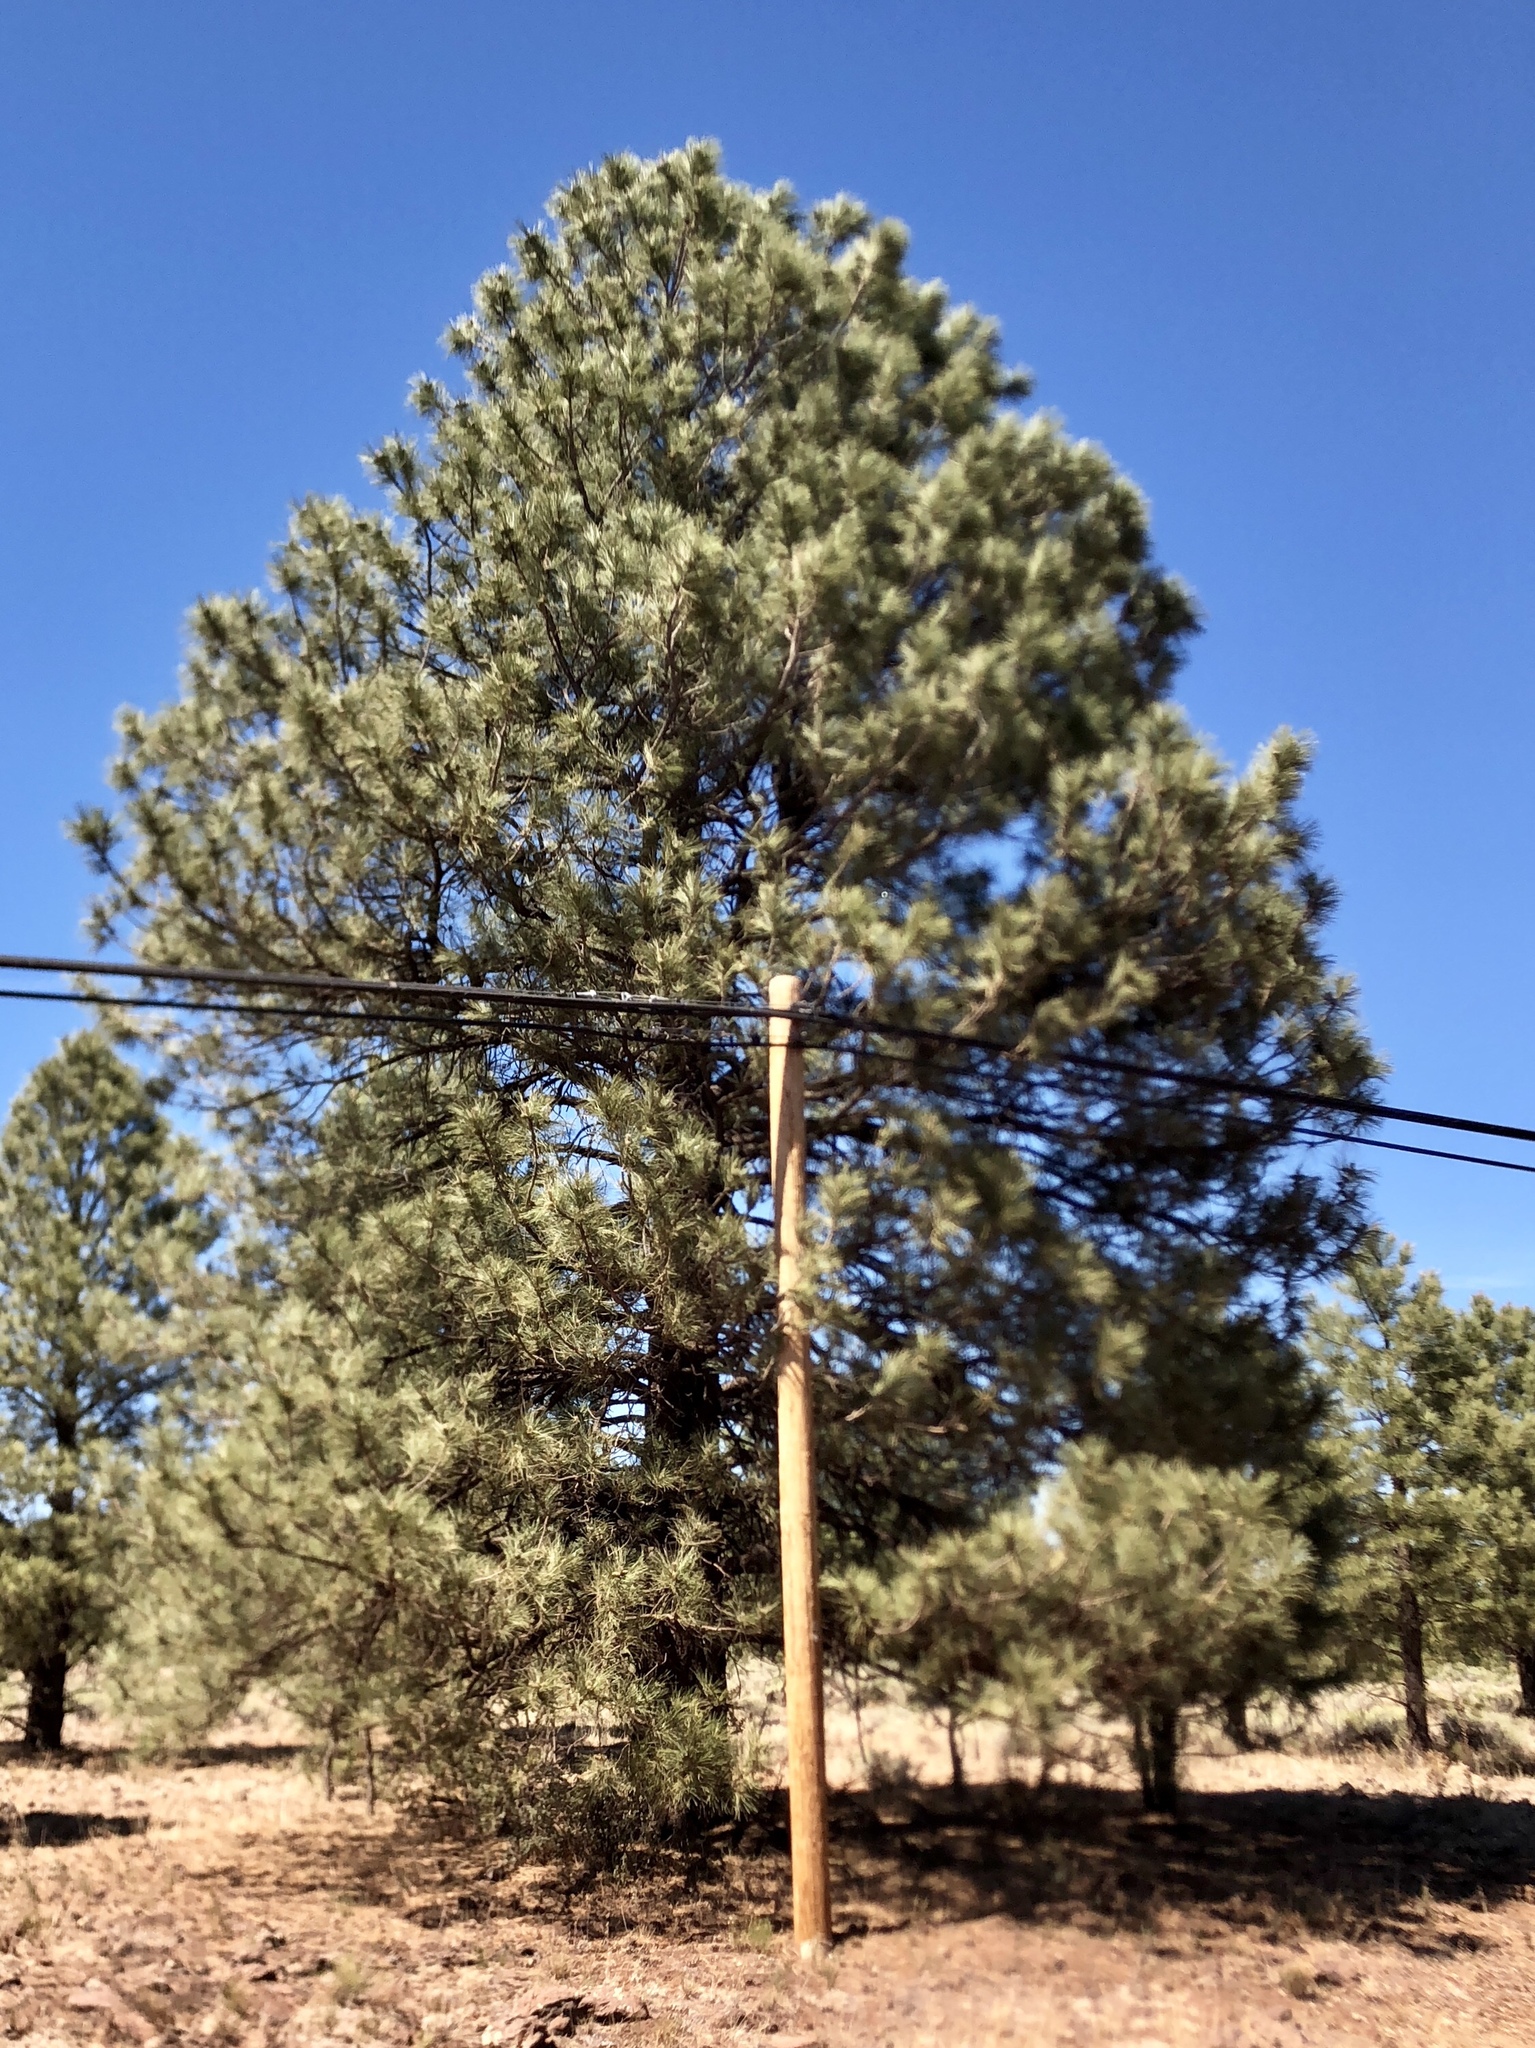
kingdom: Plantae
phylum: Tracheophyta
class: Pinopsida
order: Pinales
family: Pinaceae
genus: Pinus
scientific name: Pinus ponderosa
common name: Western yellow-pine
